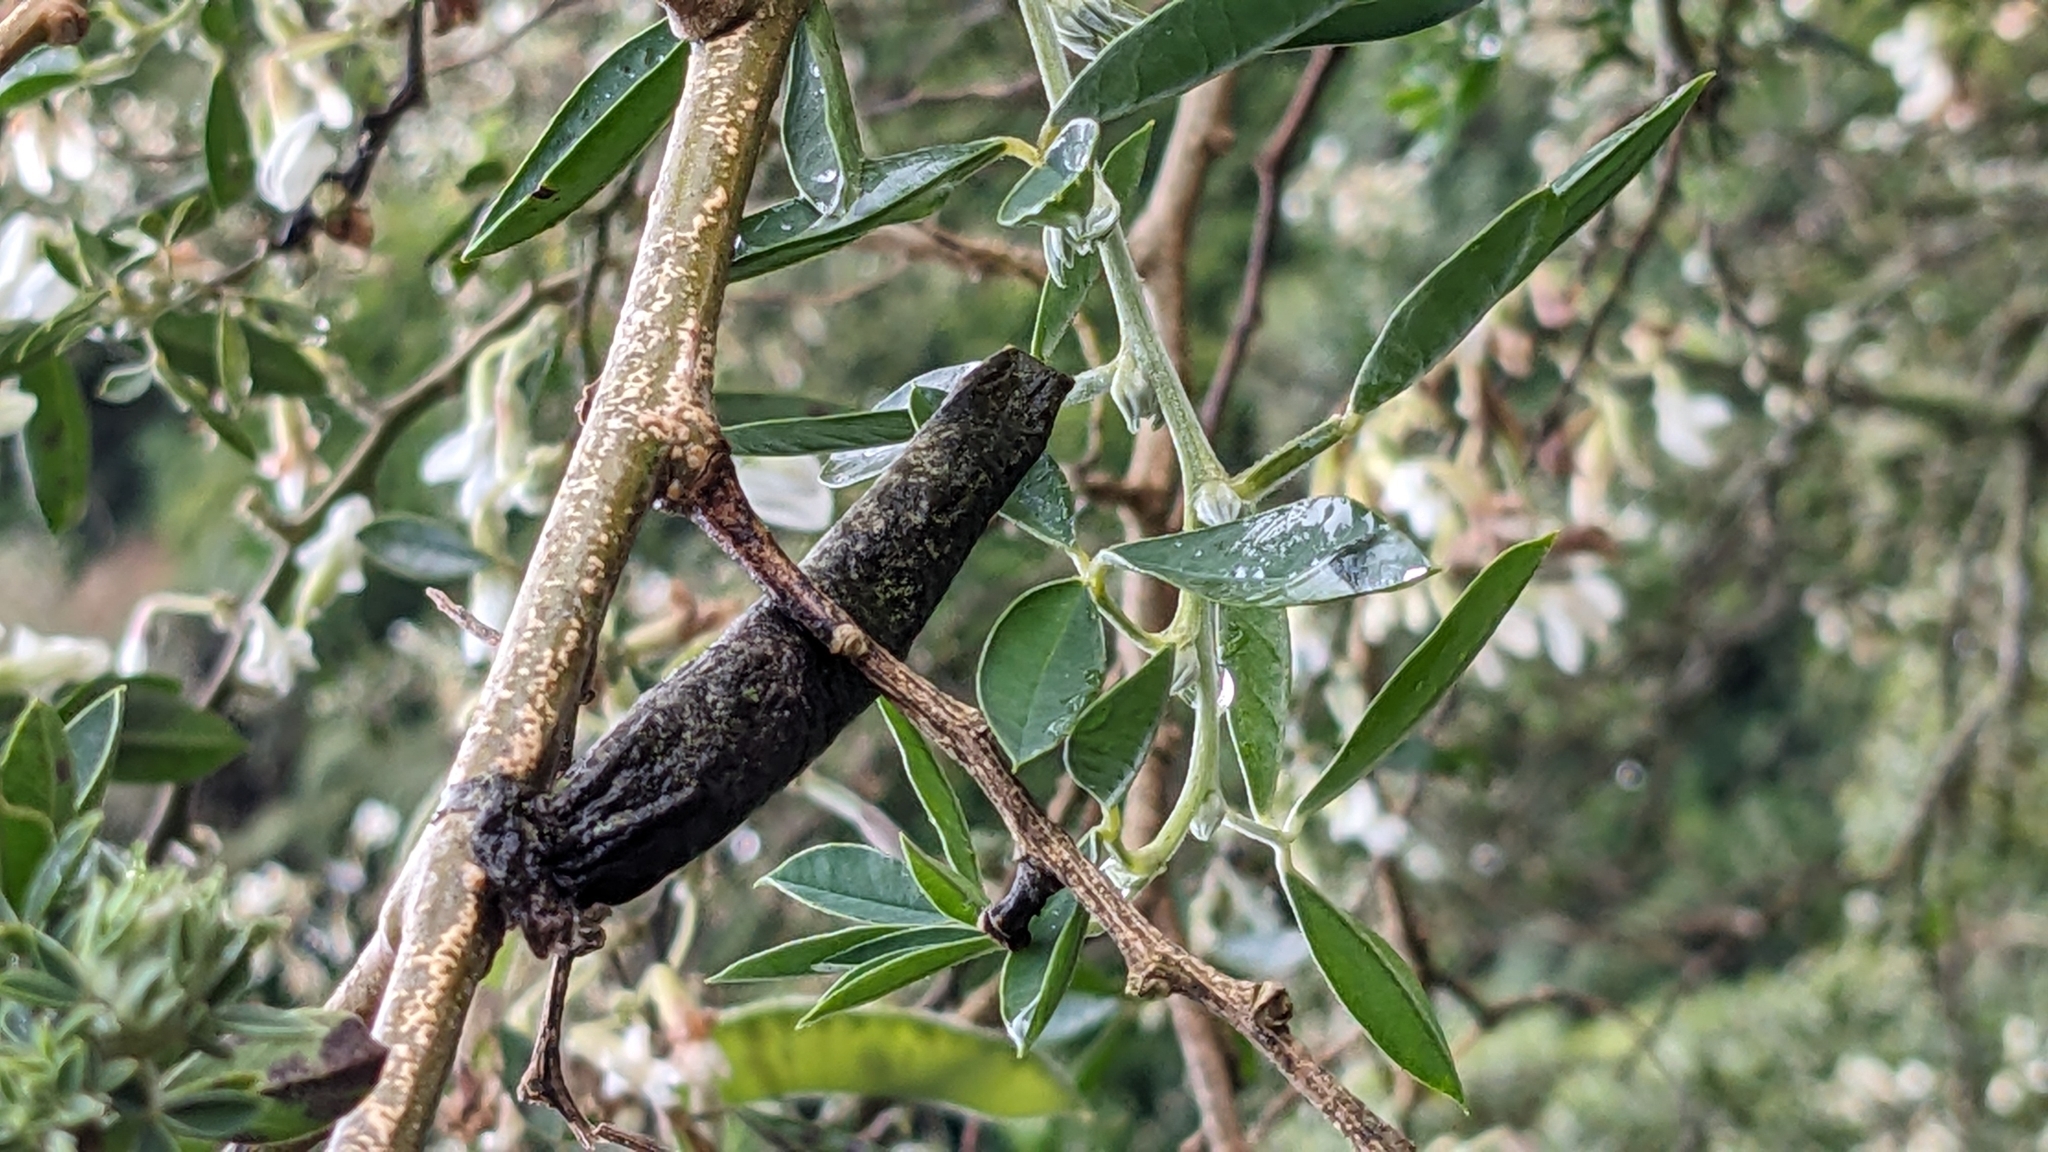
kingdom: Animalia
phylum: Arthropoda
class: Insecta
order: Lepidoptera
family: Psychidae
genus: Liothula
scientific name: Liothula omnivora
